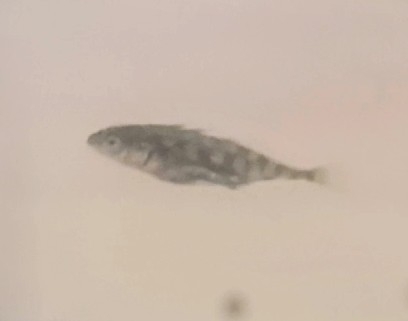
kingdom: Animalia
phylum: Chordata
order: Gasterosteiformes
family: Gasterosteidae
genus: Gasterosteus
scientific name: Gasterosteus aculeatus
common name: Three-spined stickleback
